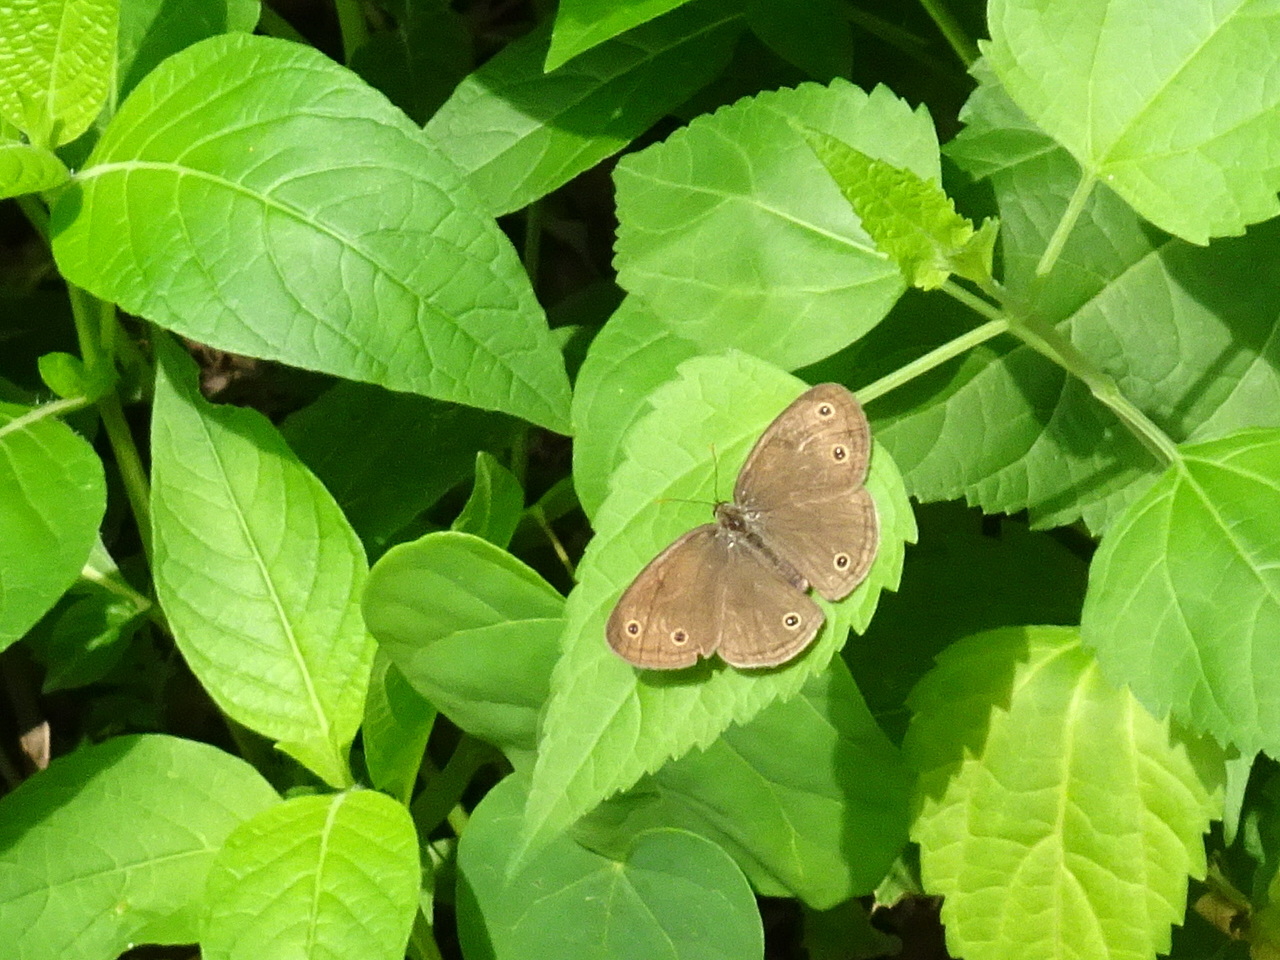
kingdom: Animalia
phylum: Arthropoda
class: Insecta
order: Lepidoptera
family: Nymphalidae
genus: Euptychia
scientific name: Euptychia cymela
